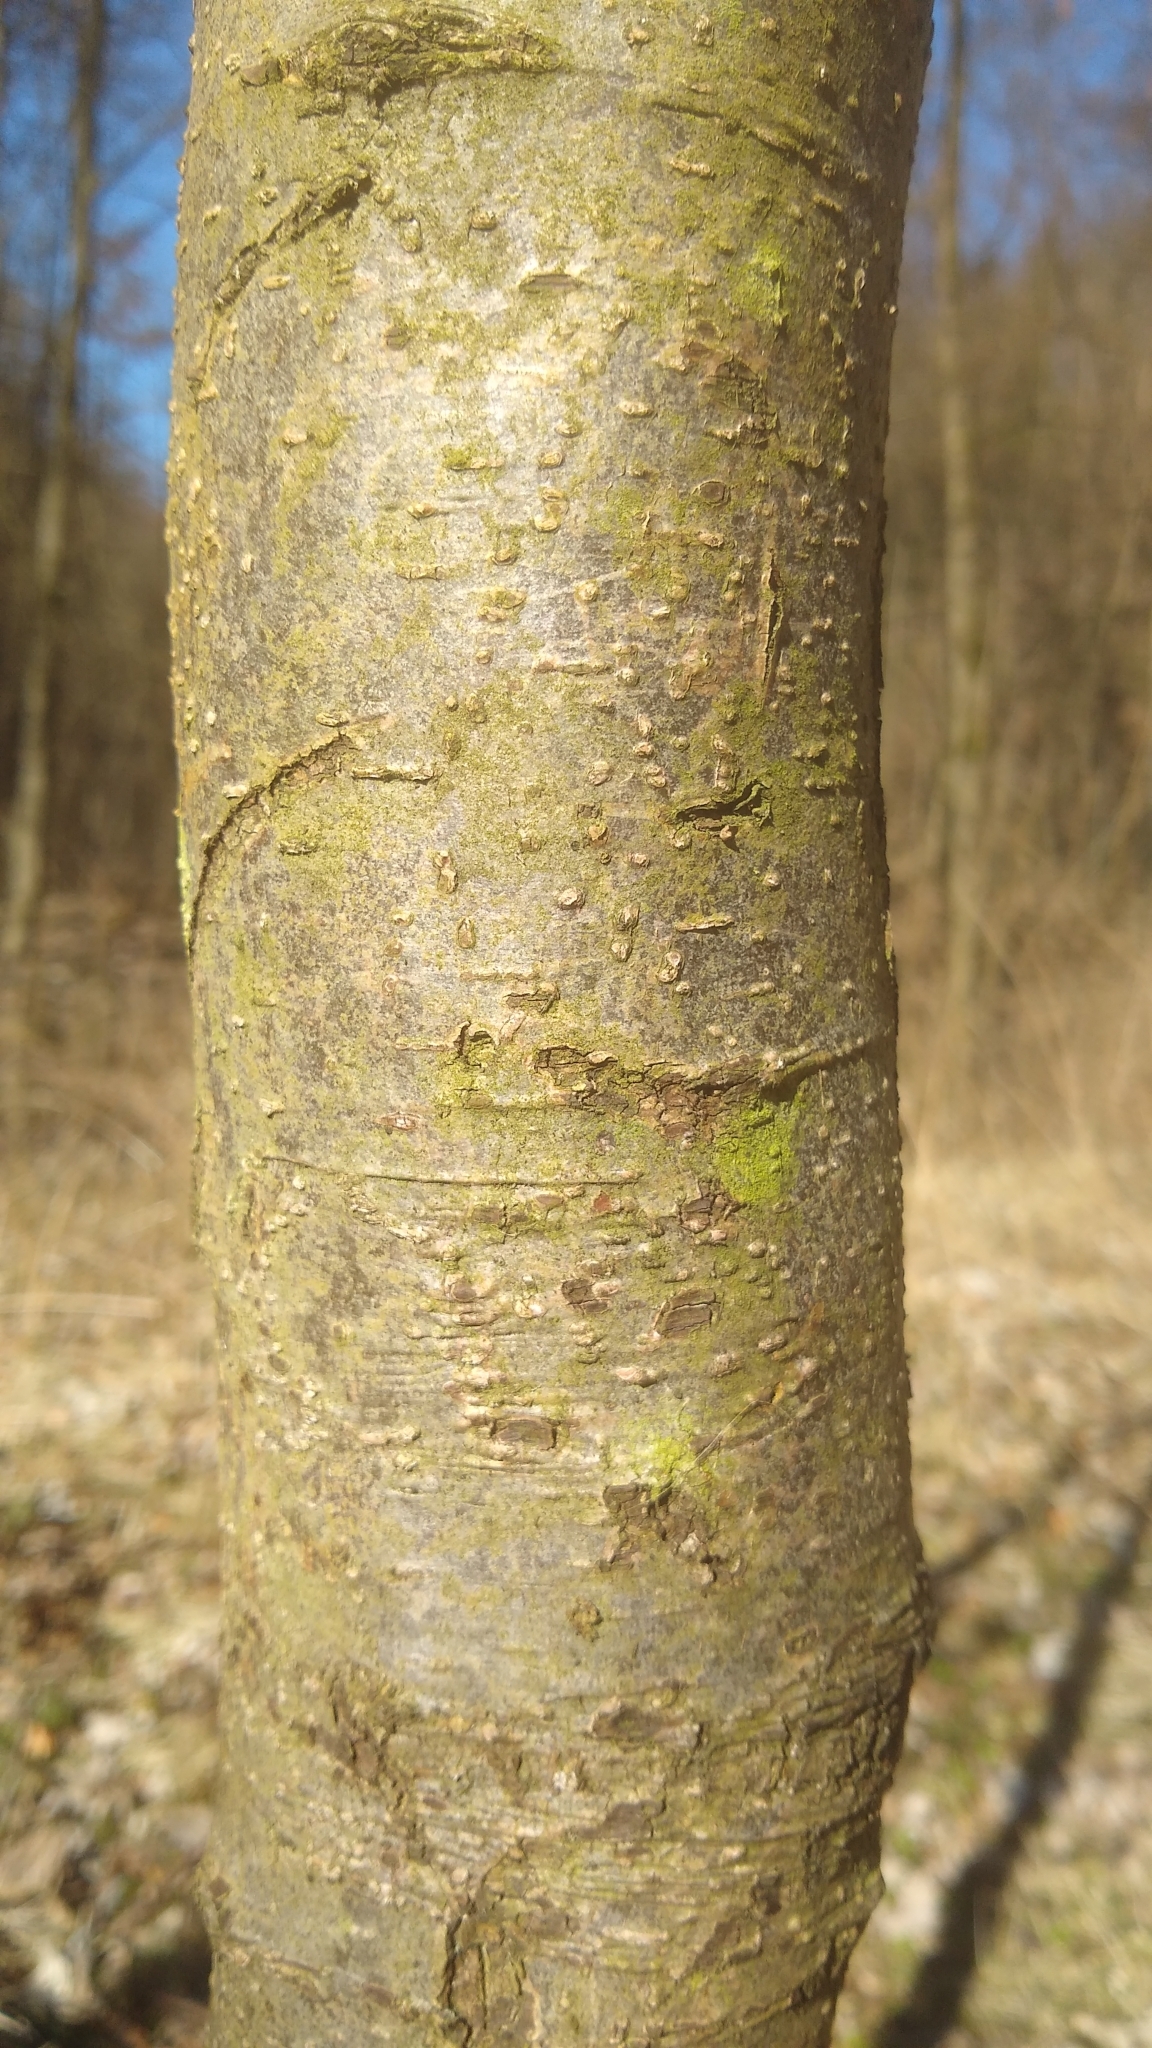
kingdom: Plantae
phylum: Tracheophyta
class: Magnoliopsida
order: Fagales
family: Betulaceae
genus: Alnus
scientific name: Alnus glutinosa
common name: Black alder
